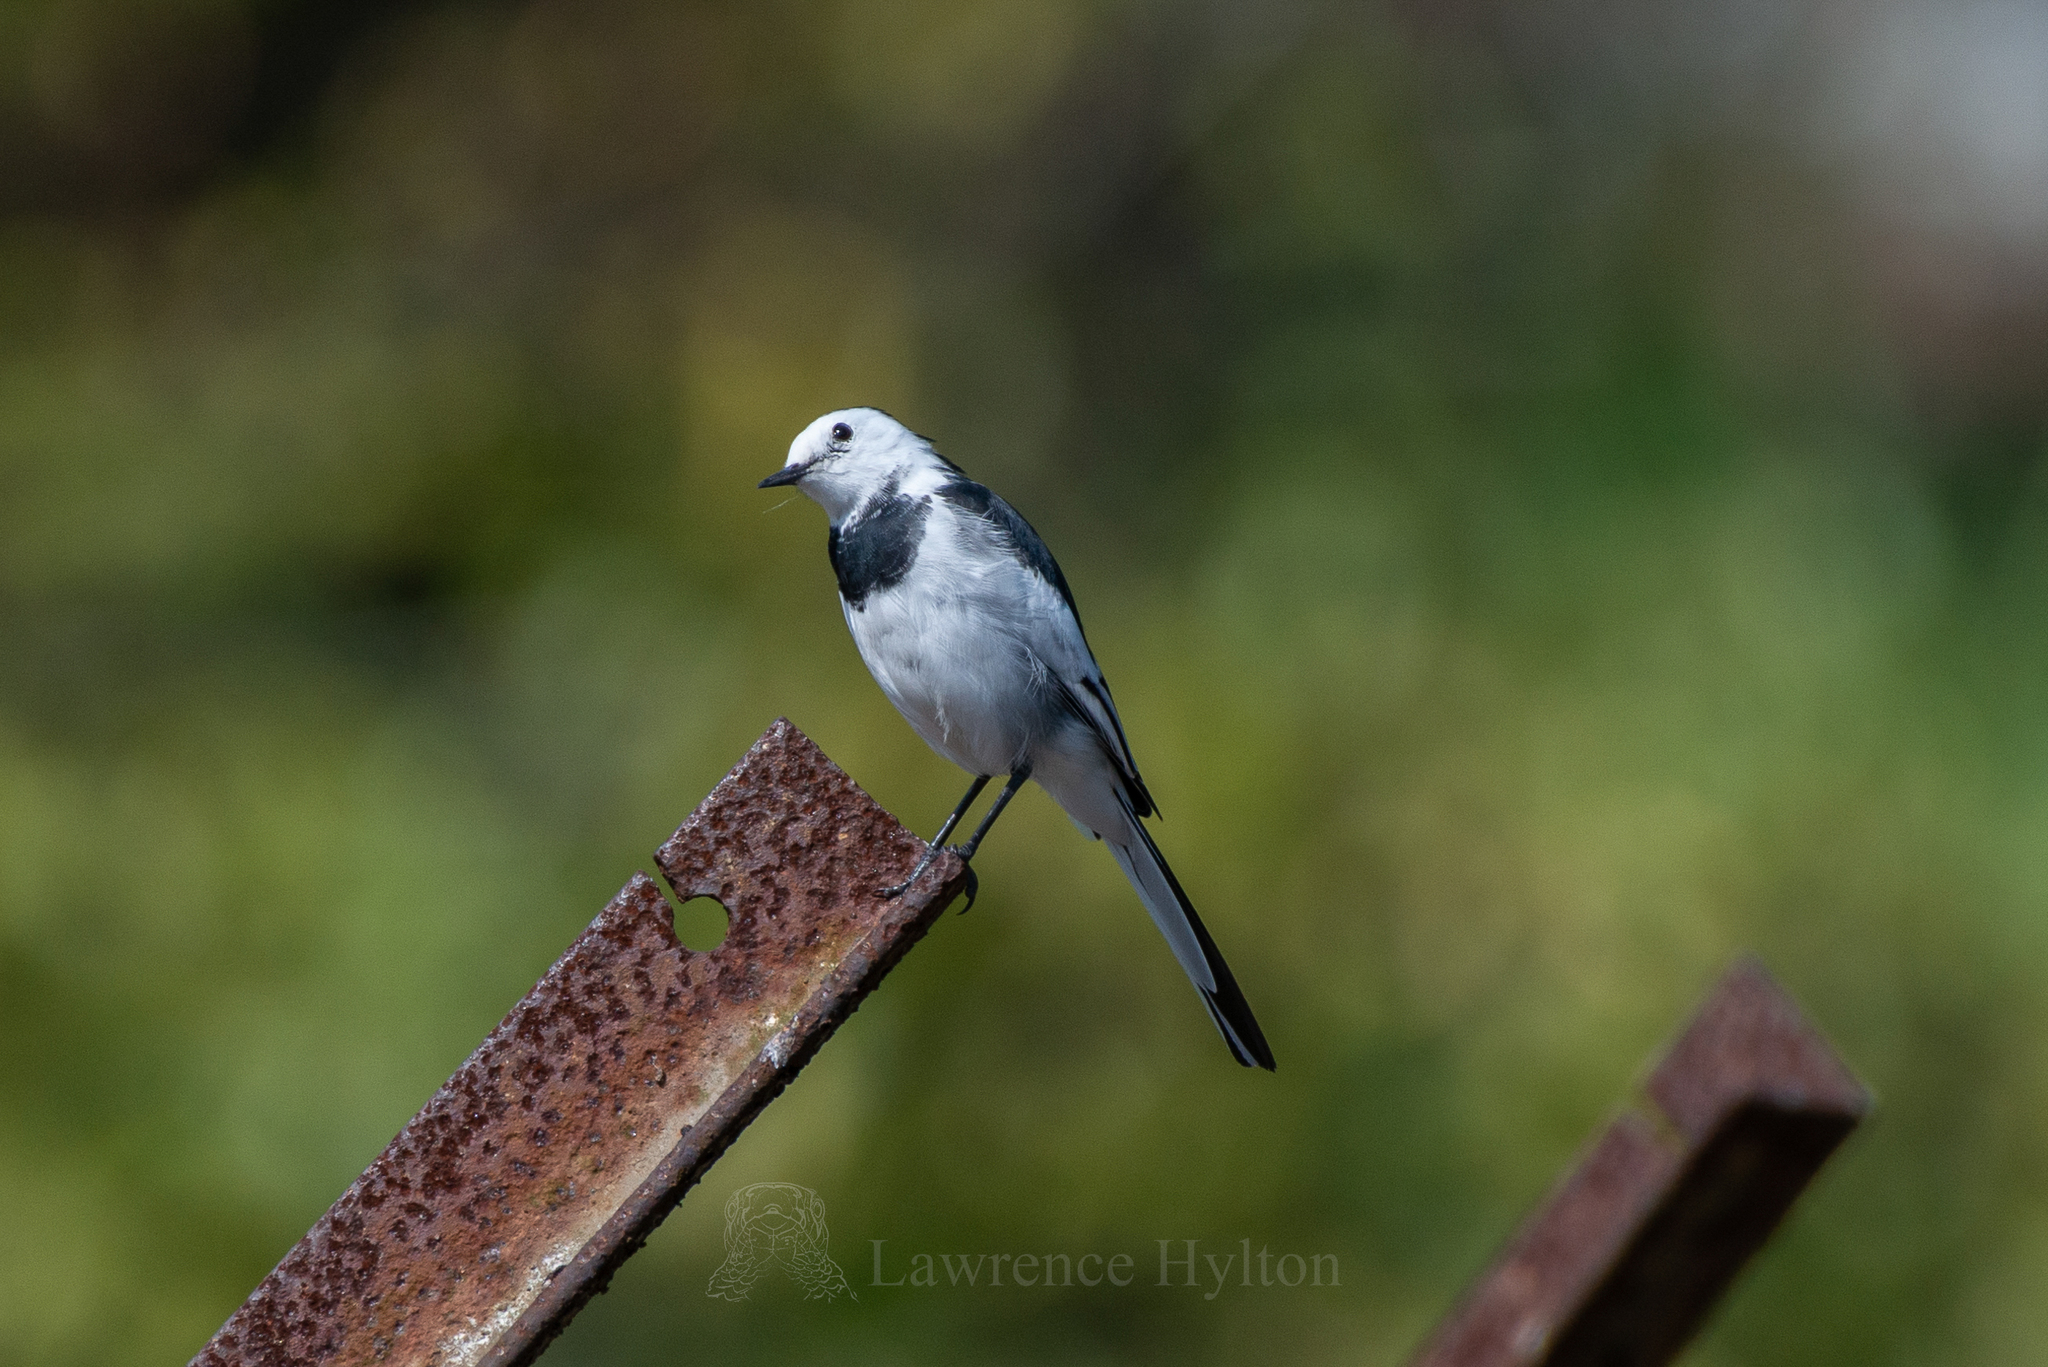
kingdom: Animalia
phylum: Chordata
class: Aves
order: Passeriformes
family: Motacillidae
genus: Motacilla
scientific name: Motacilla alba
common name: White wagtail
